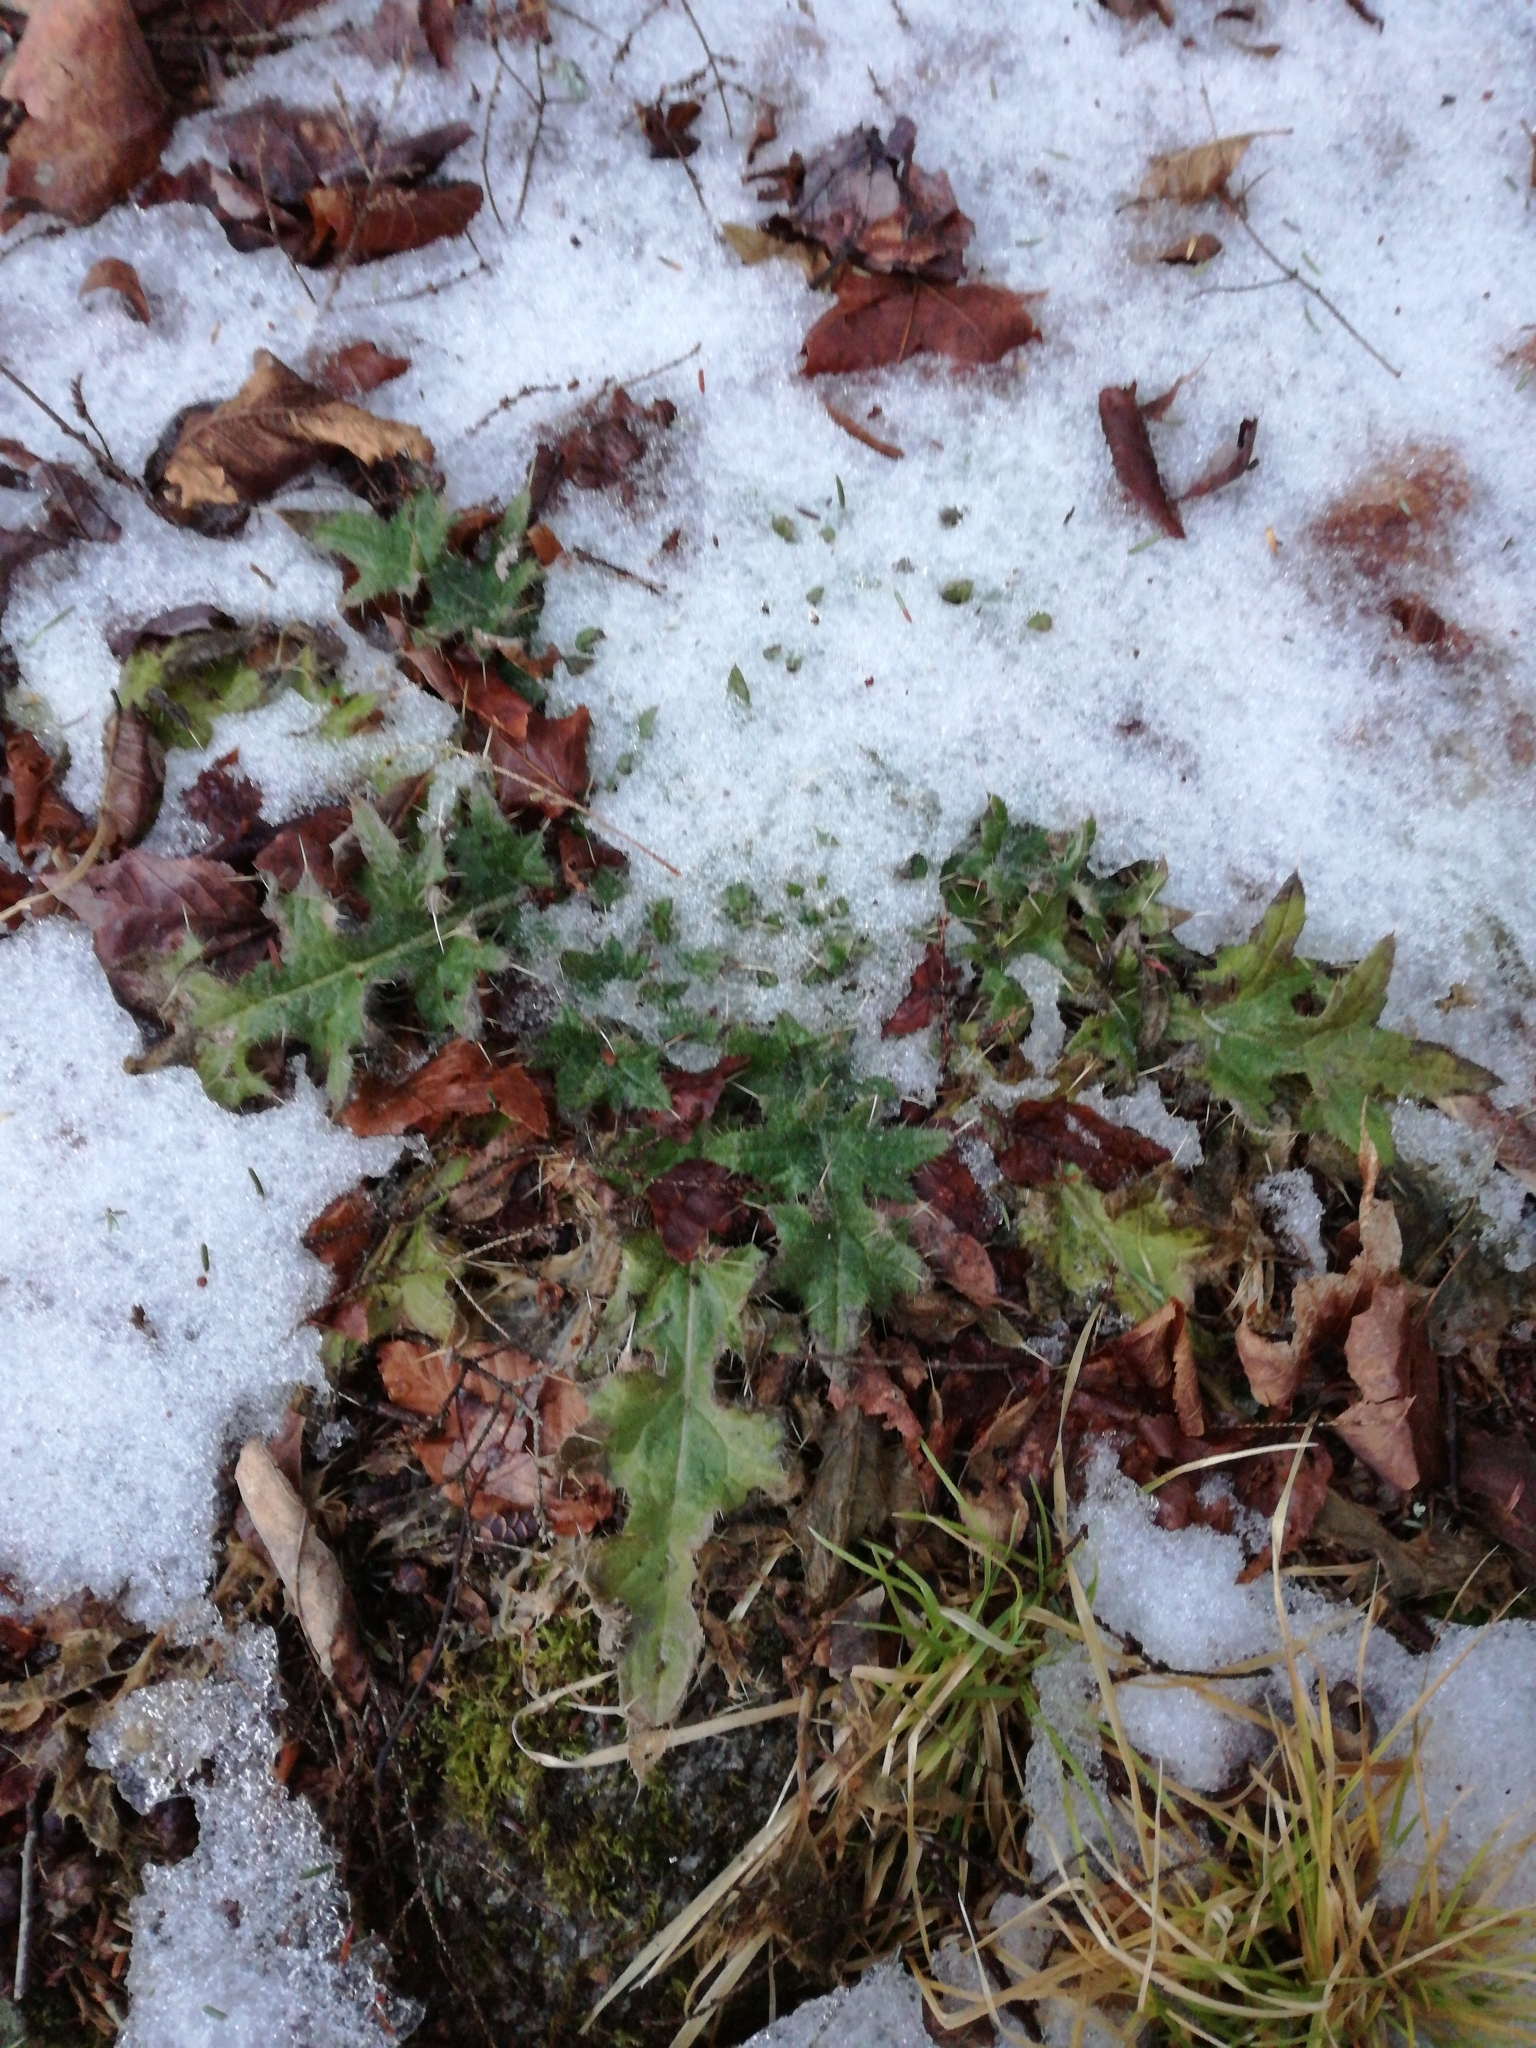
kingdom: Plantae
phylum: Tracheophyta
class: Magnoliopsida
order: Asterales
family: Asteraceae
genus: Cirsium
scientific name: Cirsium vulgare
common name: Bull thistle
